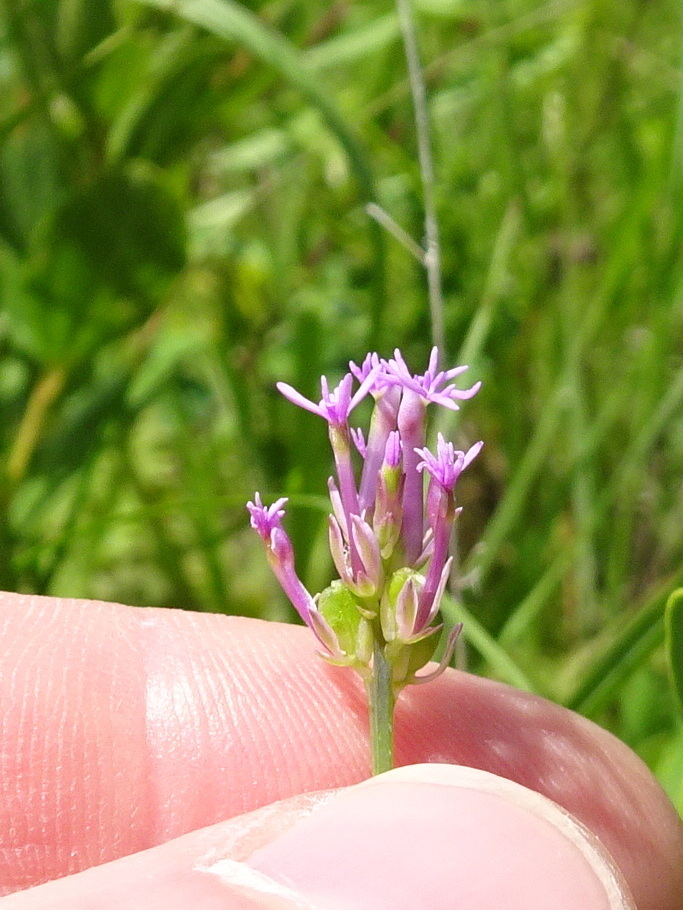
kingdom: Plantae
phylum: Tracheophyta
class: Magnoliopsida
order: Fabales
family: Polygalaceae
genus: Polygala
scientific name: Polygala incarnata
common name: Pink milkwort
